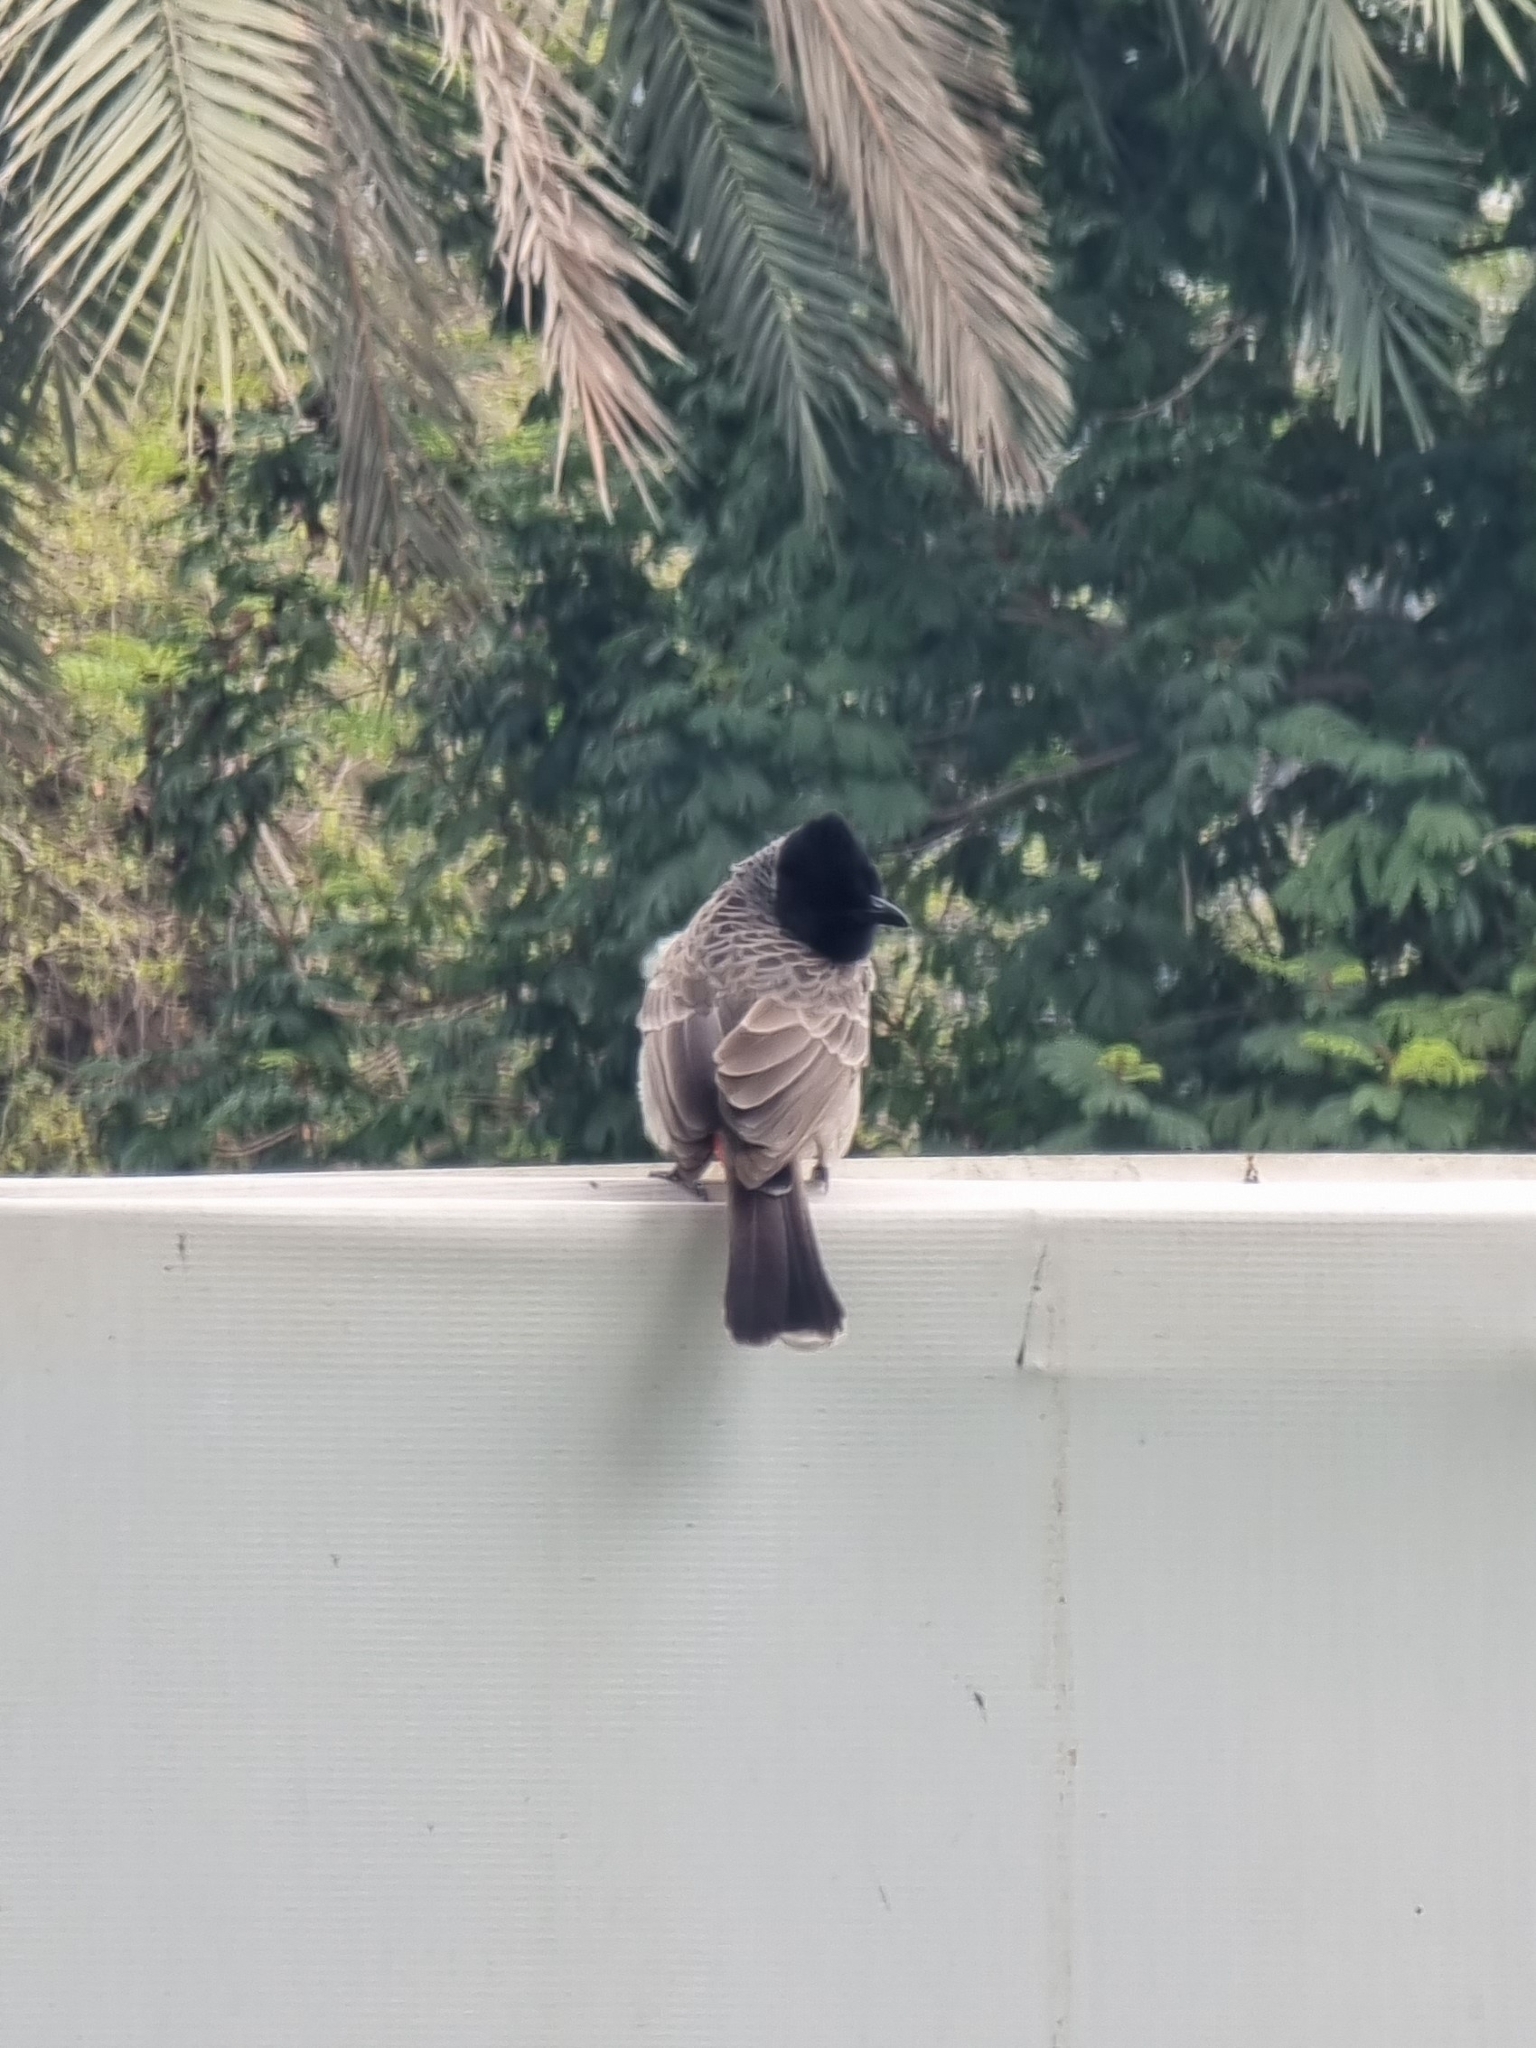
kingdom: Animalia
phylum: Chordata
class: Aves
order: Passeriformes
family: Pycnonotidae
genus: Pycnonotus
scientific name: Pycnonotus cafer
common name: Red-vented bulbul
